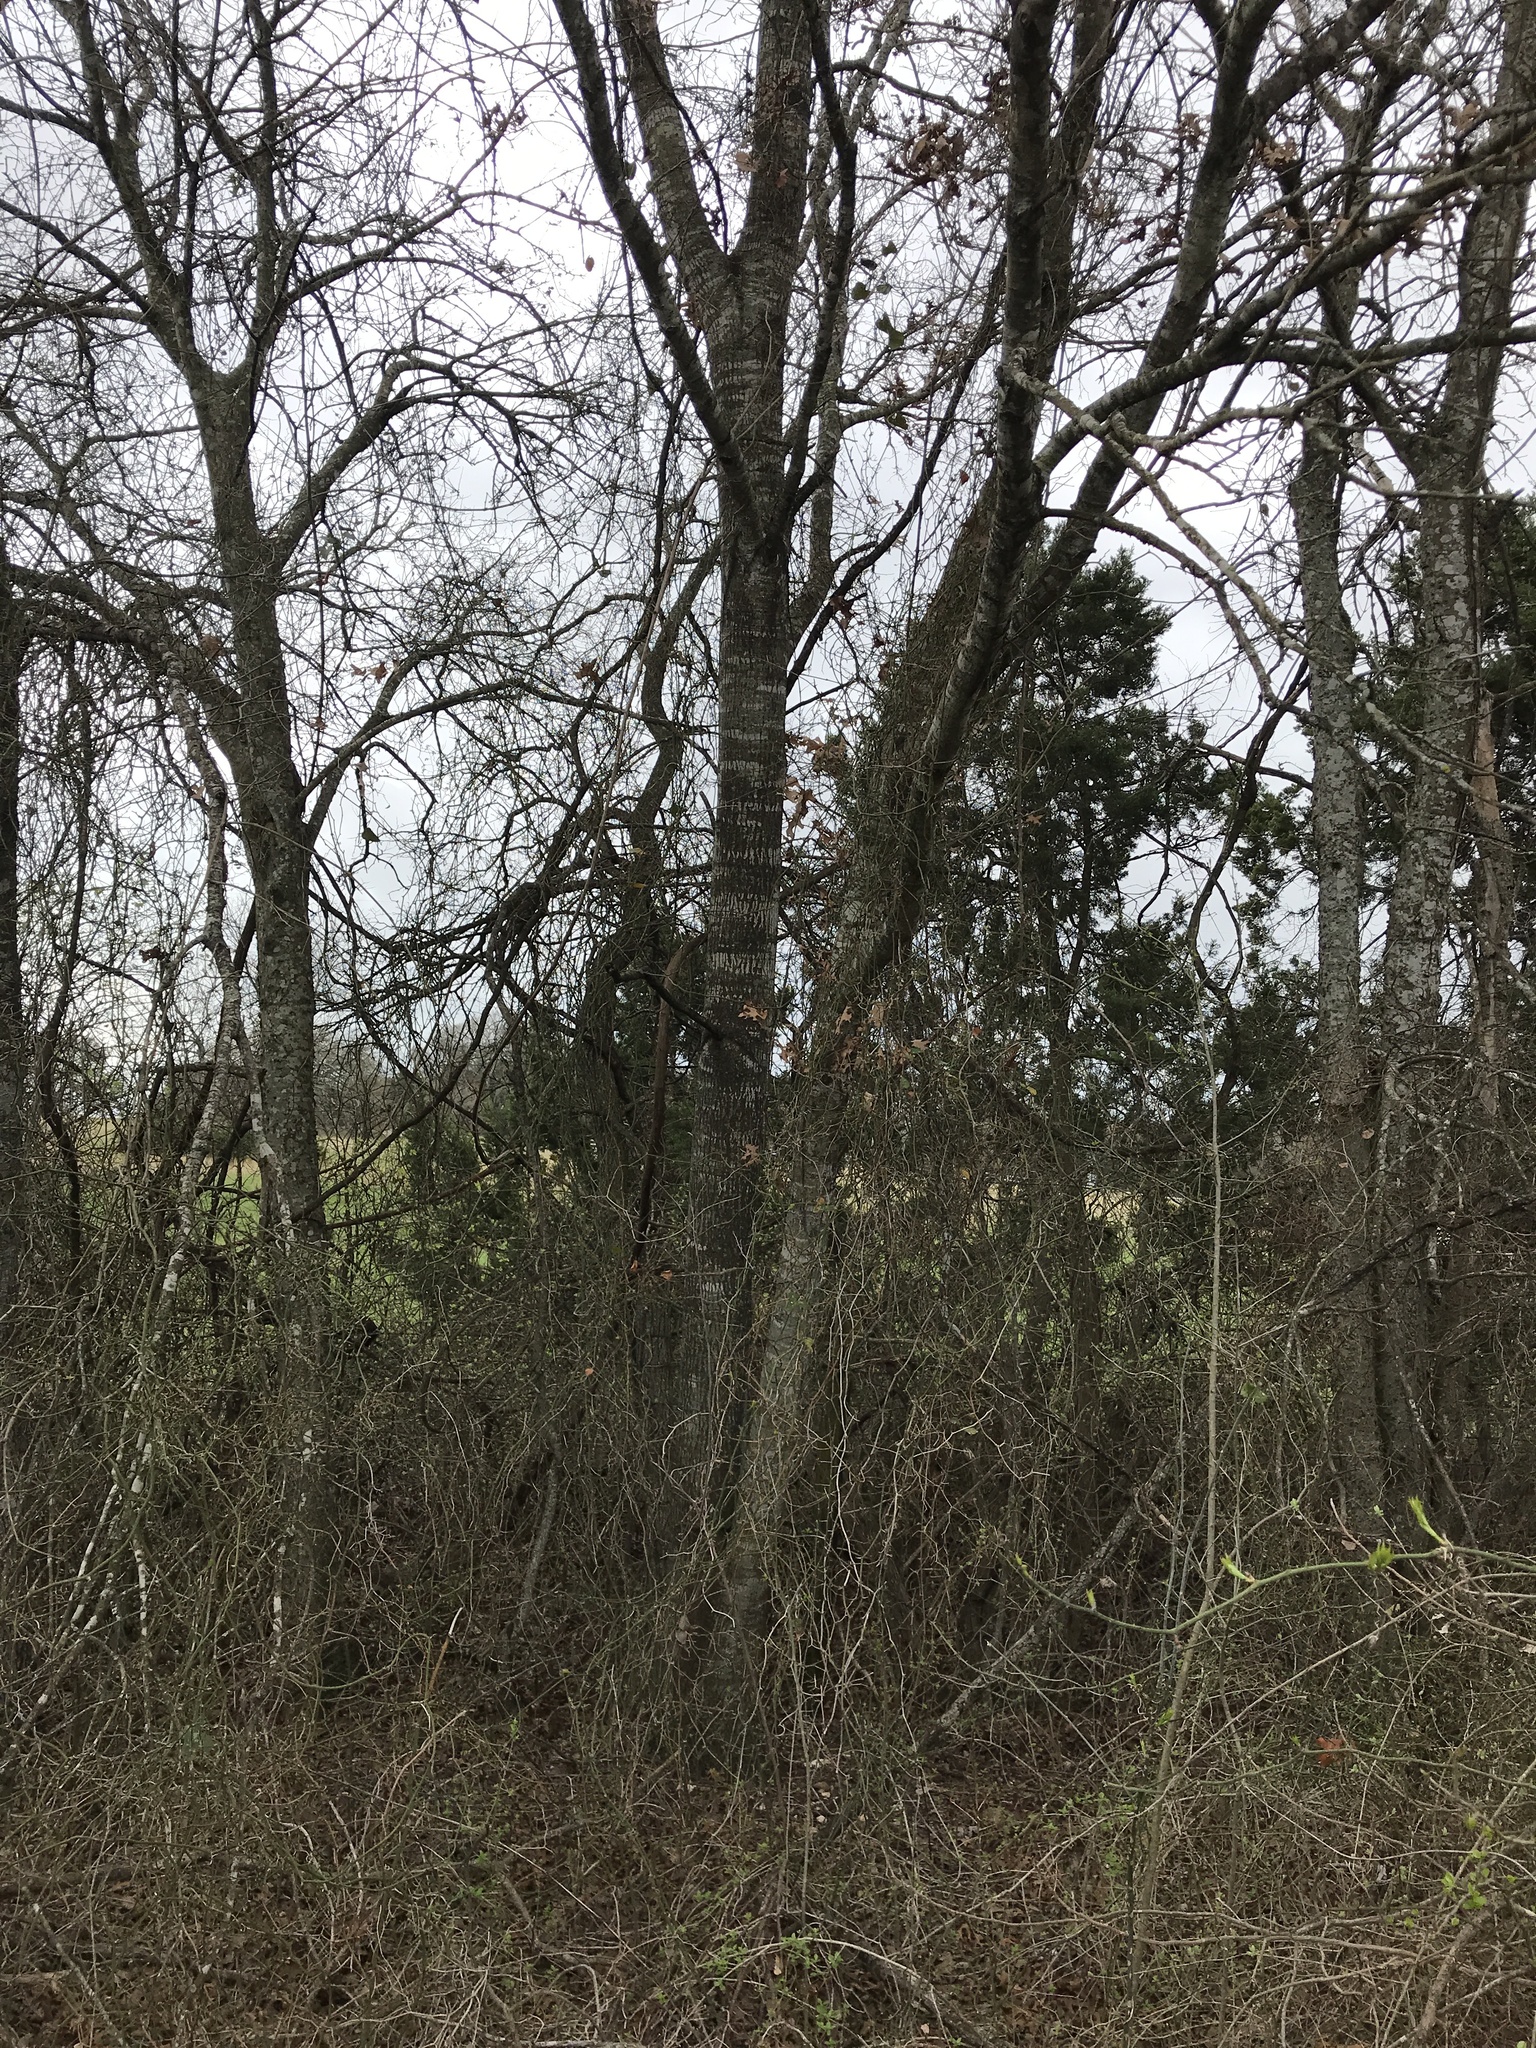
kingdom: Plantae
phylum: Tracheophyta
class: Magnoliopsida
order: Fagales
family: Fagaceae
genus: Quercus
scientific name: Quercus buckleyi
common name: Buckley oak
